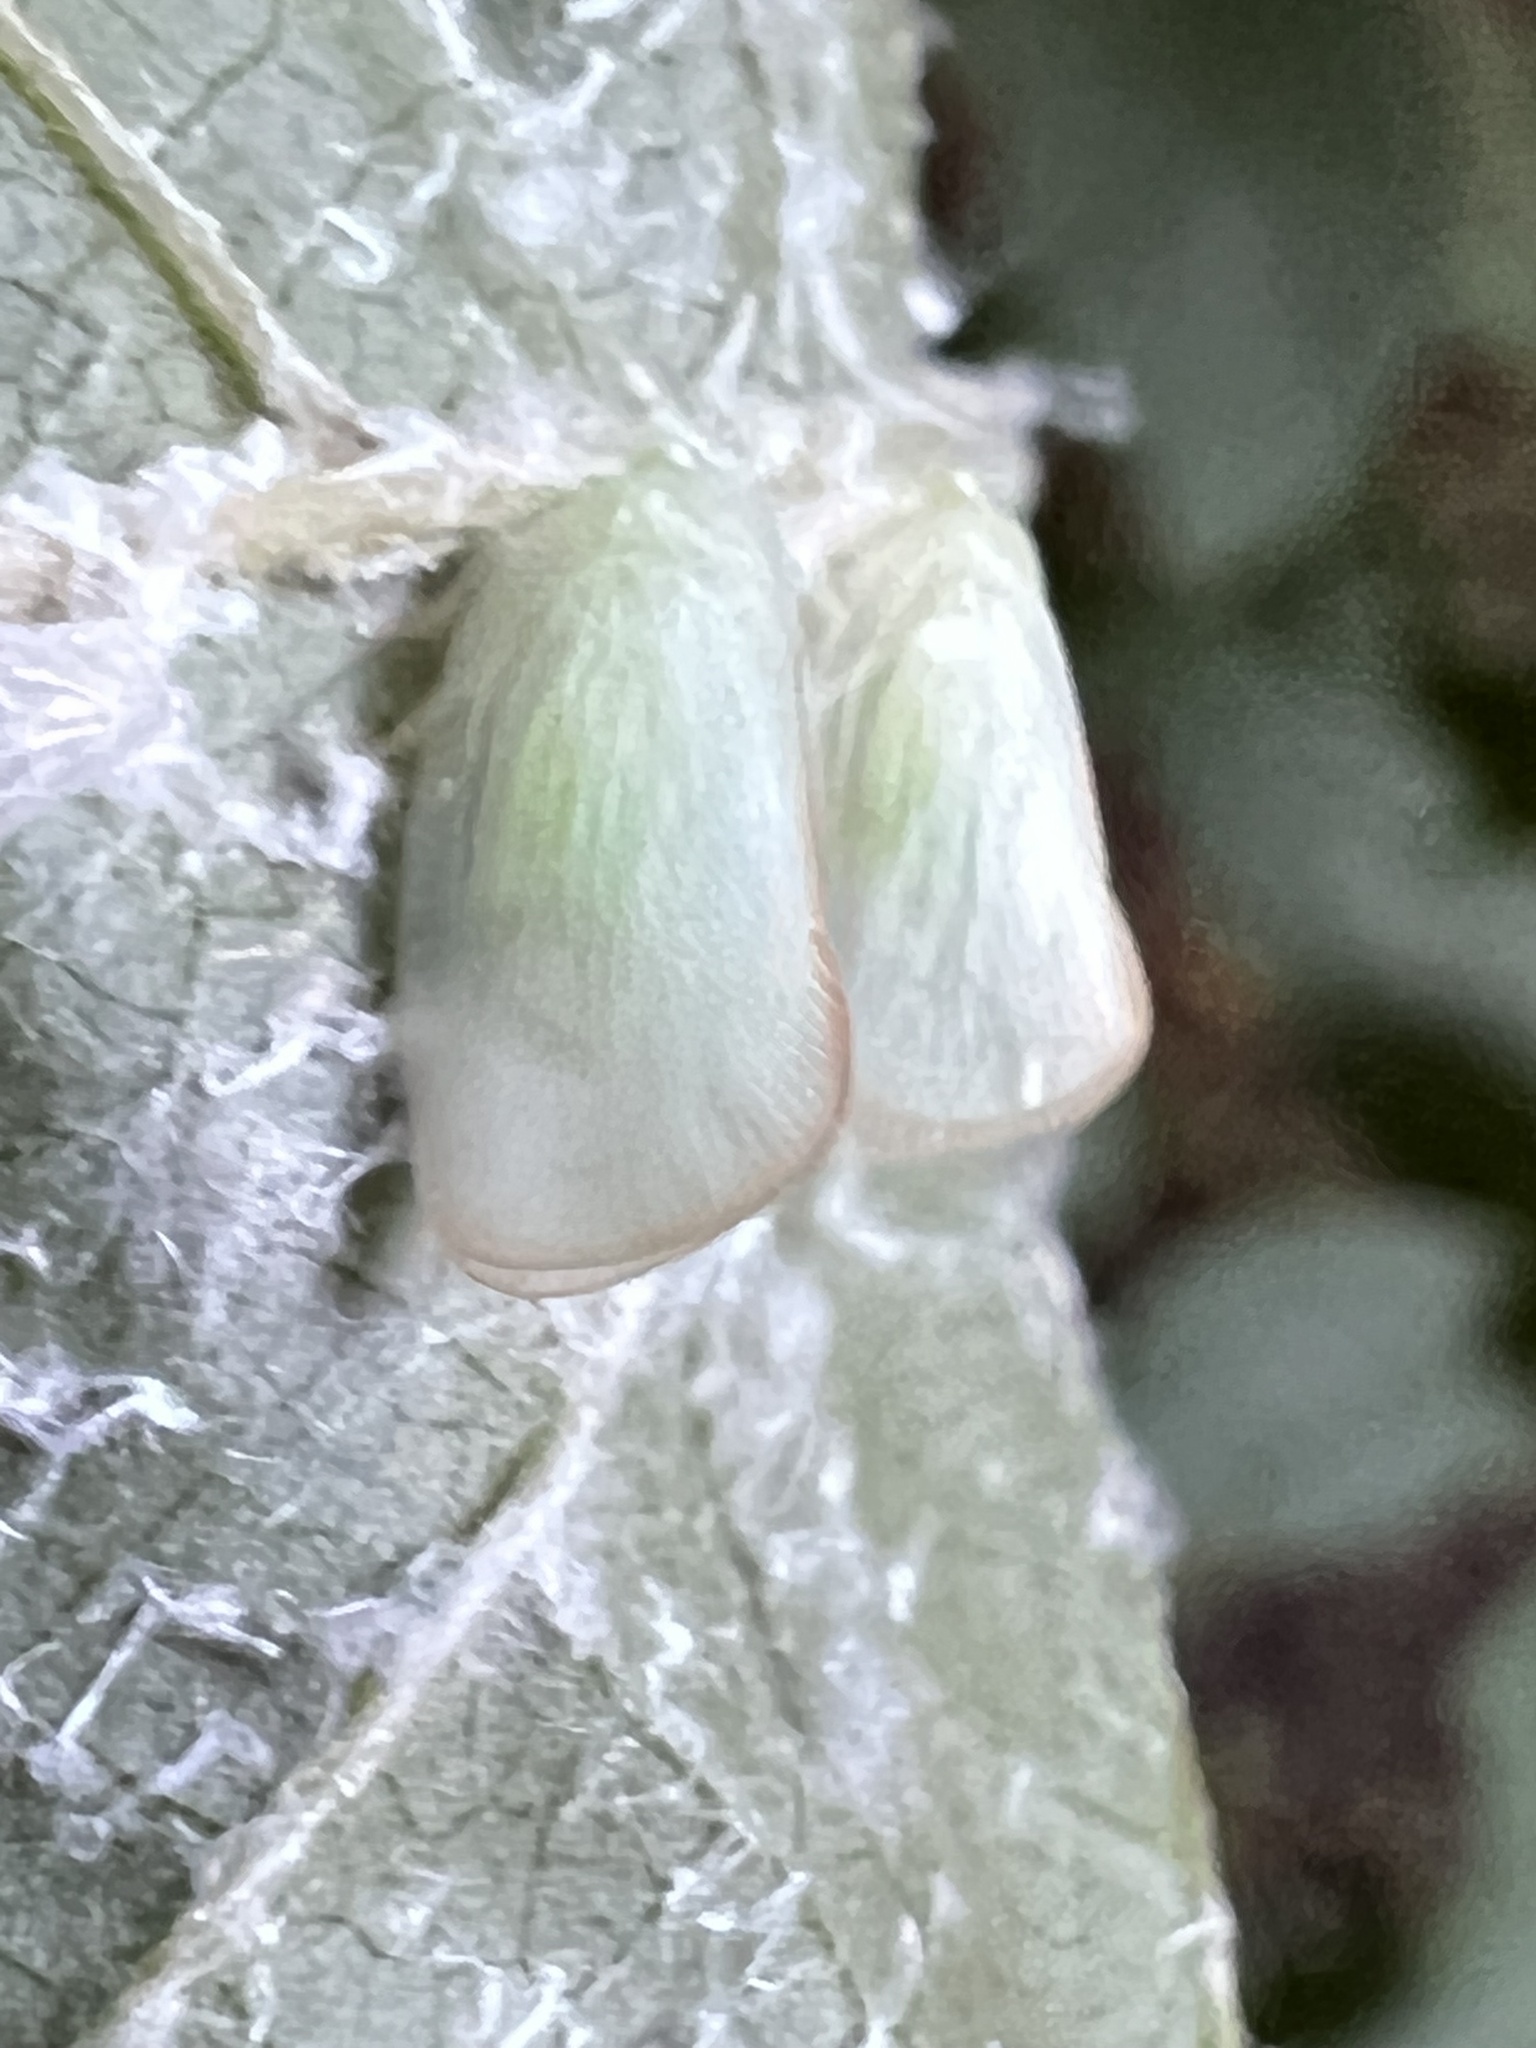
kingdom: Animalia
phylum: Arthropoda
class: Insecta
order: Hemiptera
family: Flatidae
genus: Ormenoides
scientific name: Ormenoides venusta
